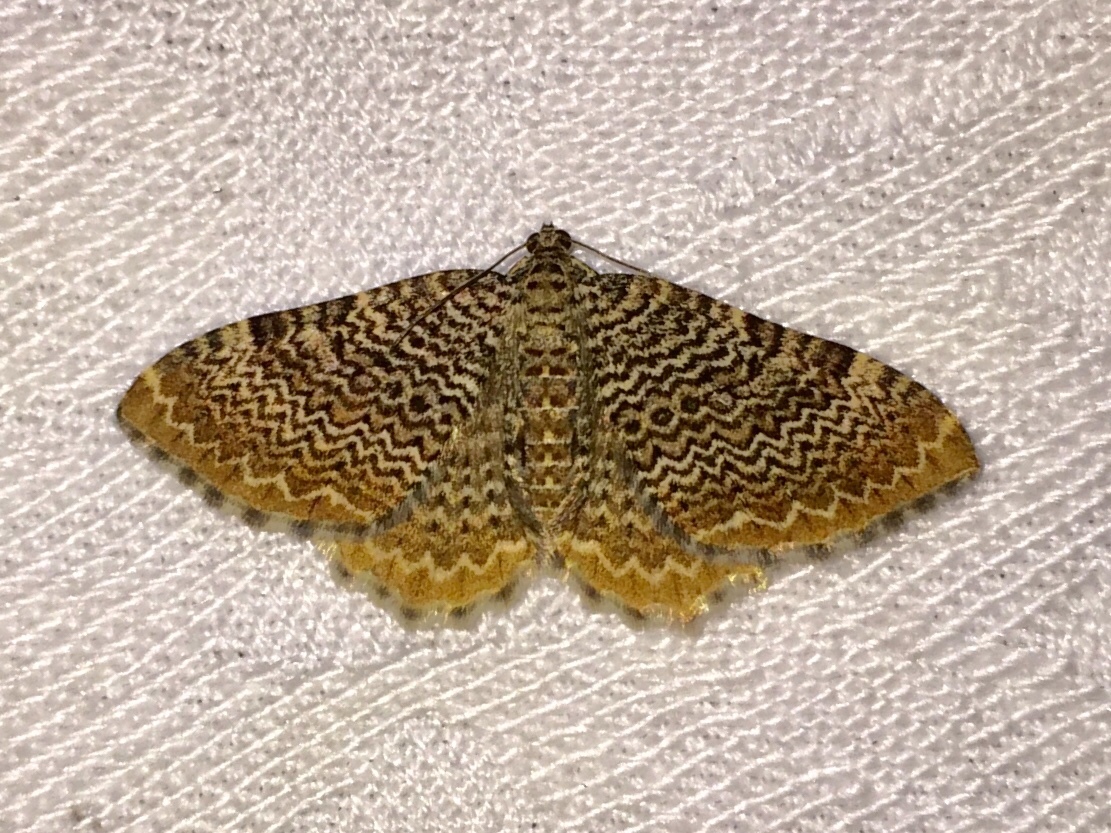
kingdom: Animalia
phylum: Arthropoda
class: Insecta
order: Lepidoptera
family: Geometridae
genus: Rheumaptera
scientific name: Rheumaptera prunivorata
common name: Cherry scallop shell moth
